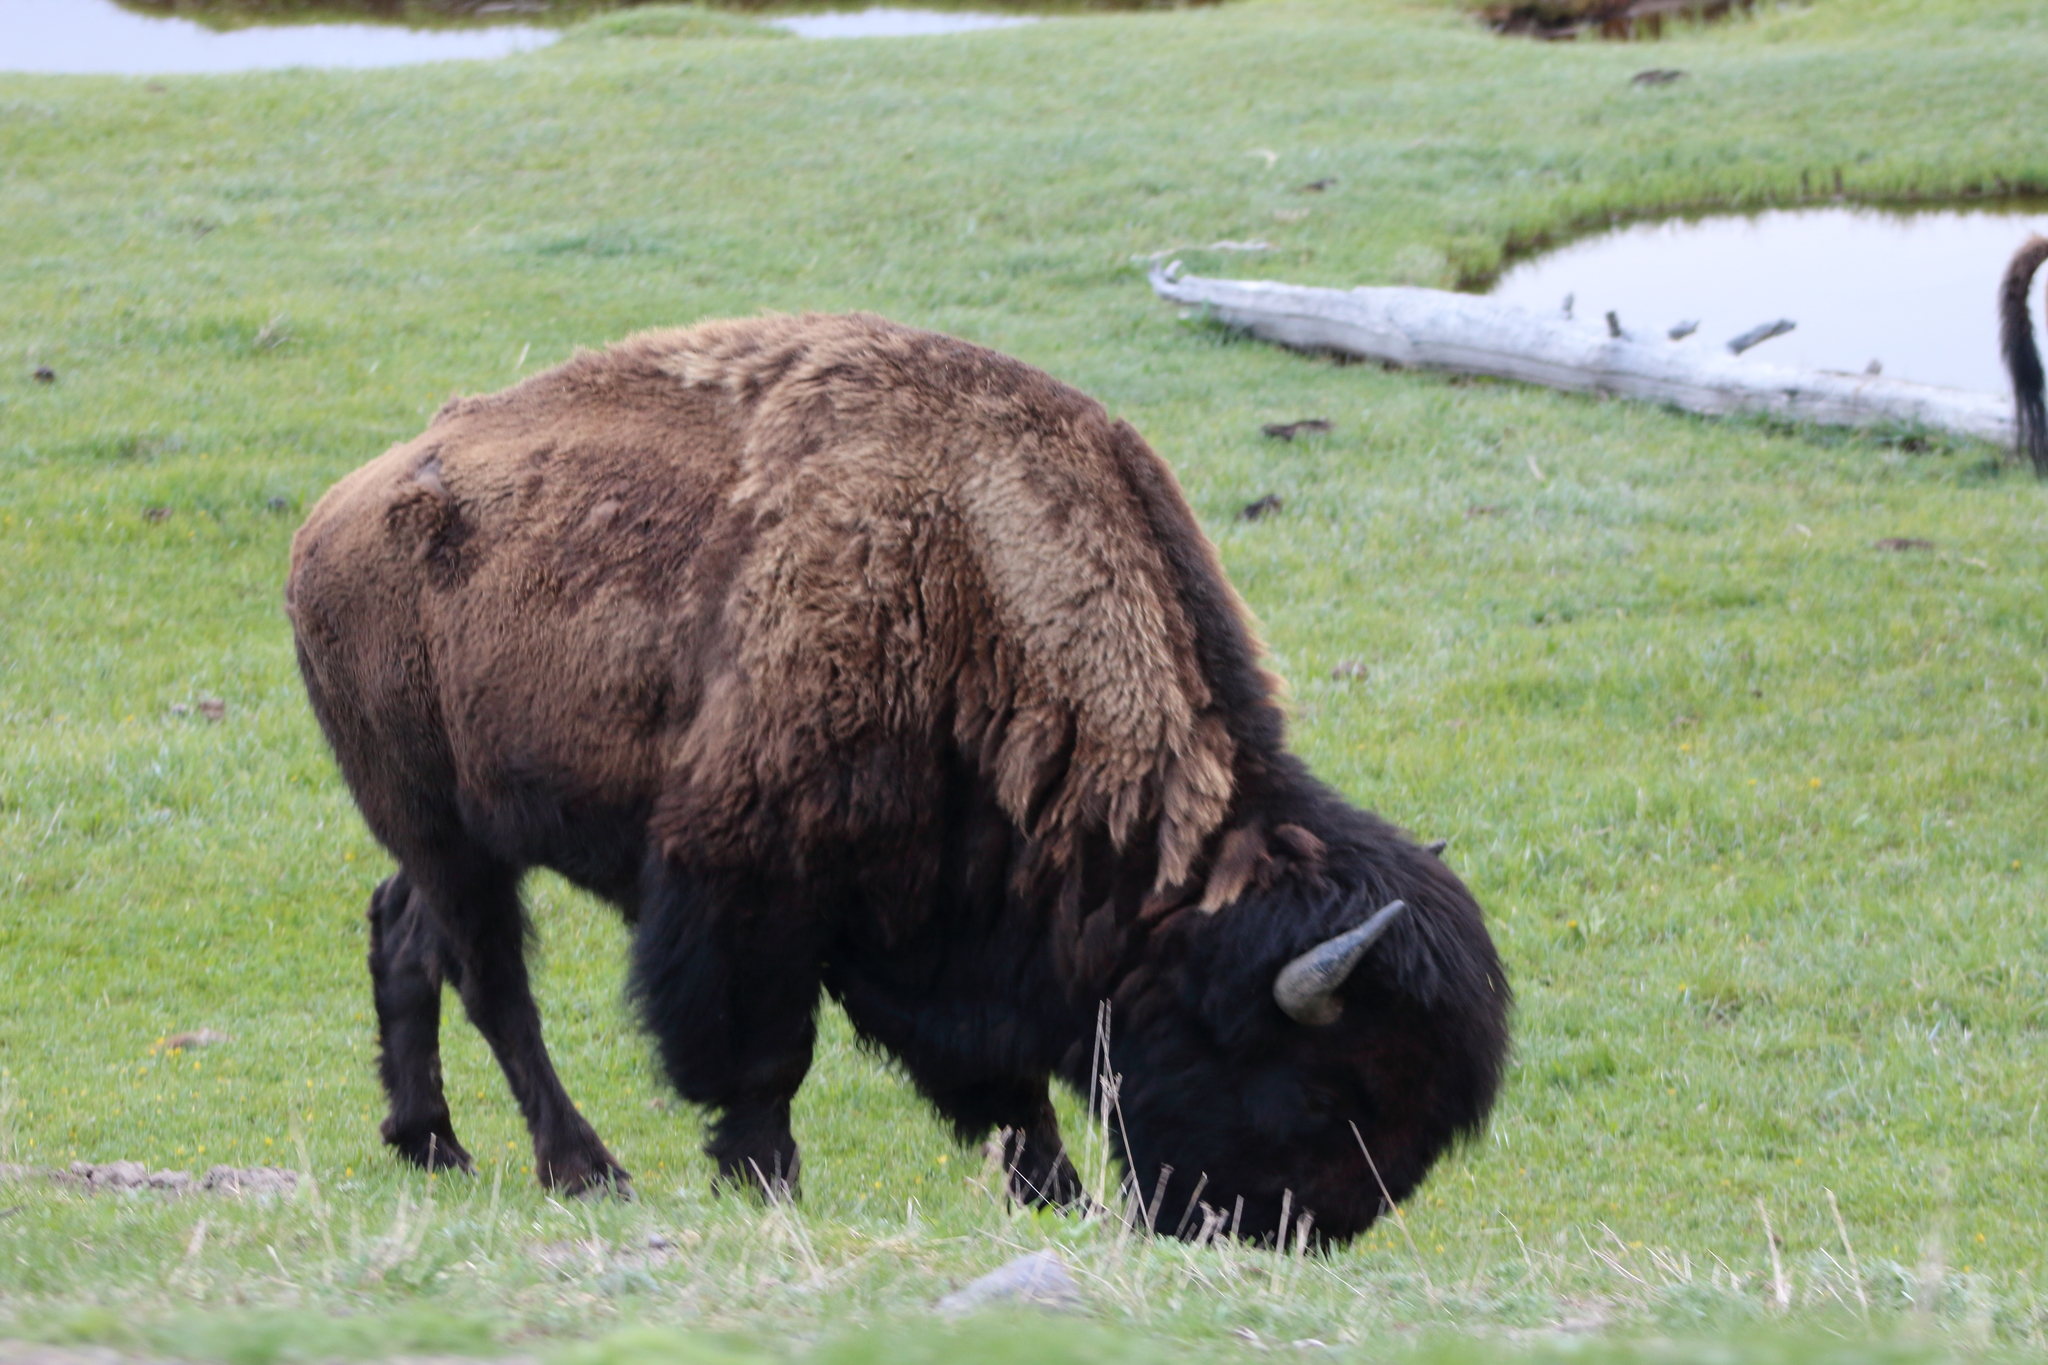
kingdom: Animalia
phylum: Chordata
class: Mammalia
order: Artiodactyla
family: Bovidae
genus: Bison
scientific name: Bison bison
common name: American bison
